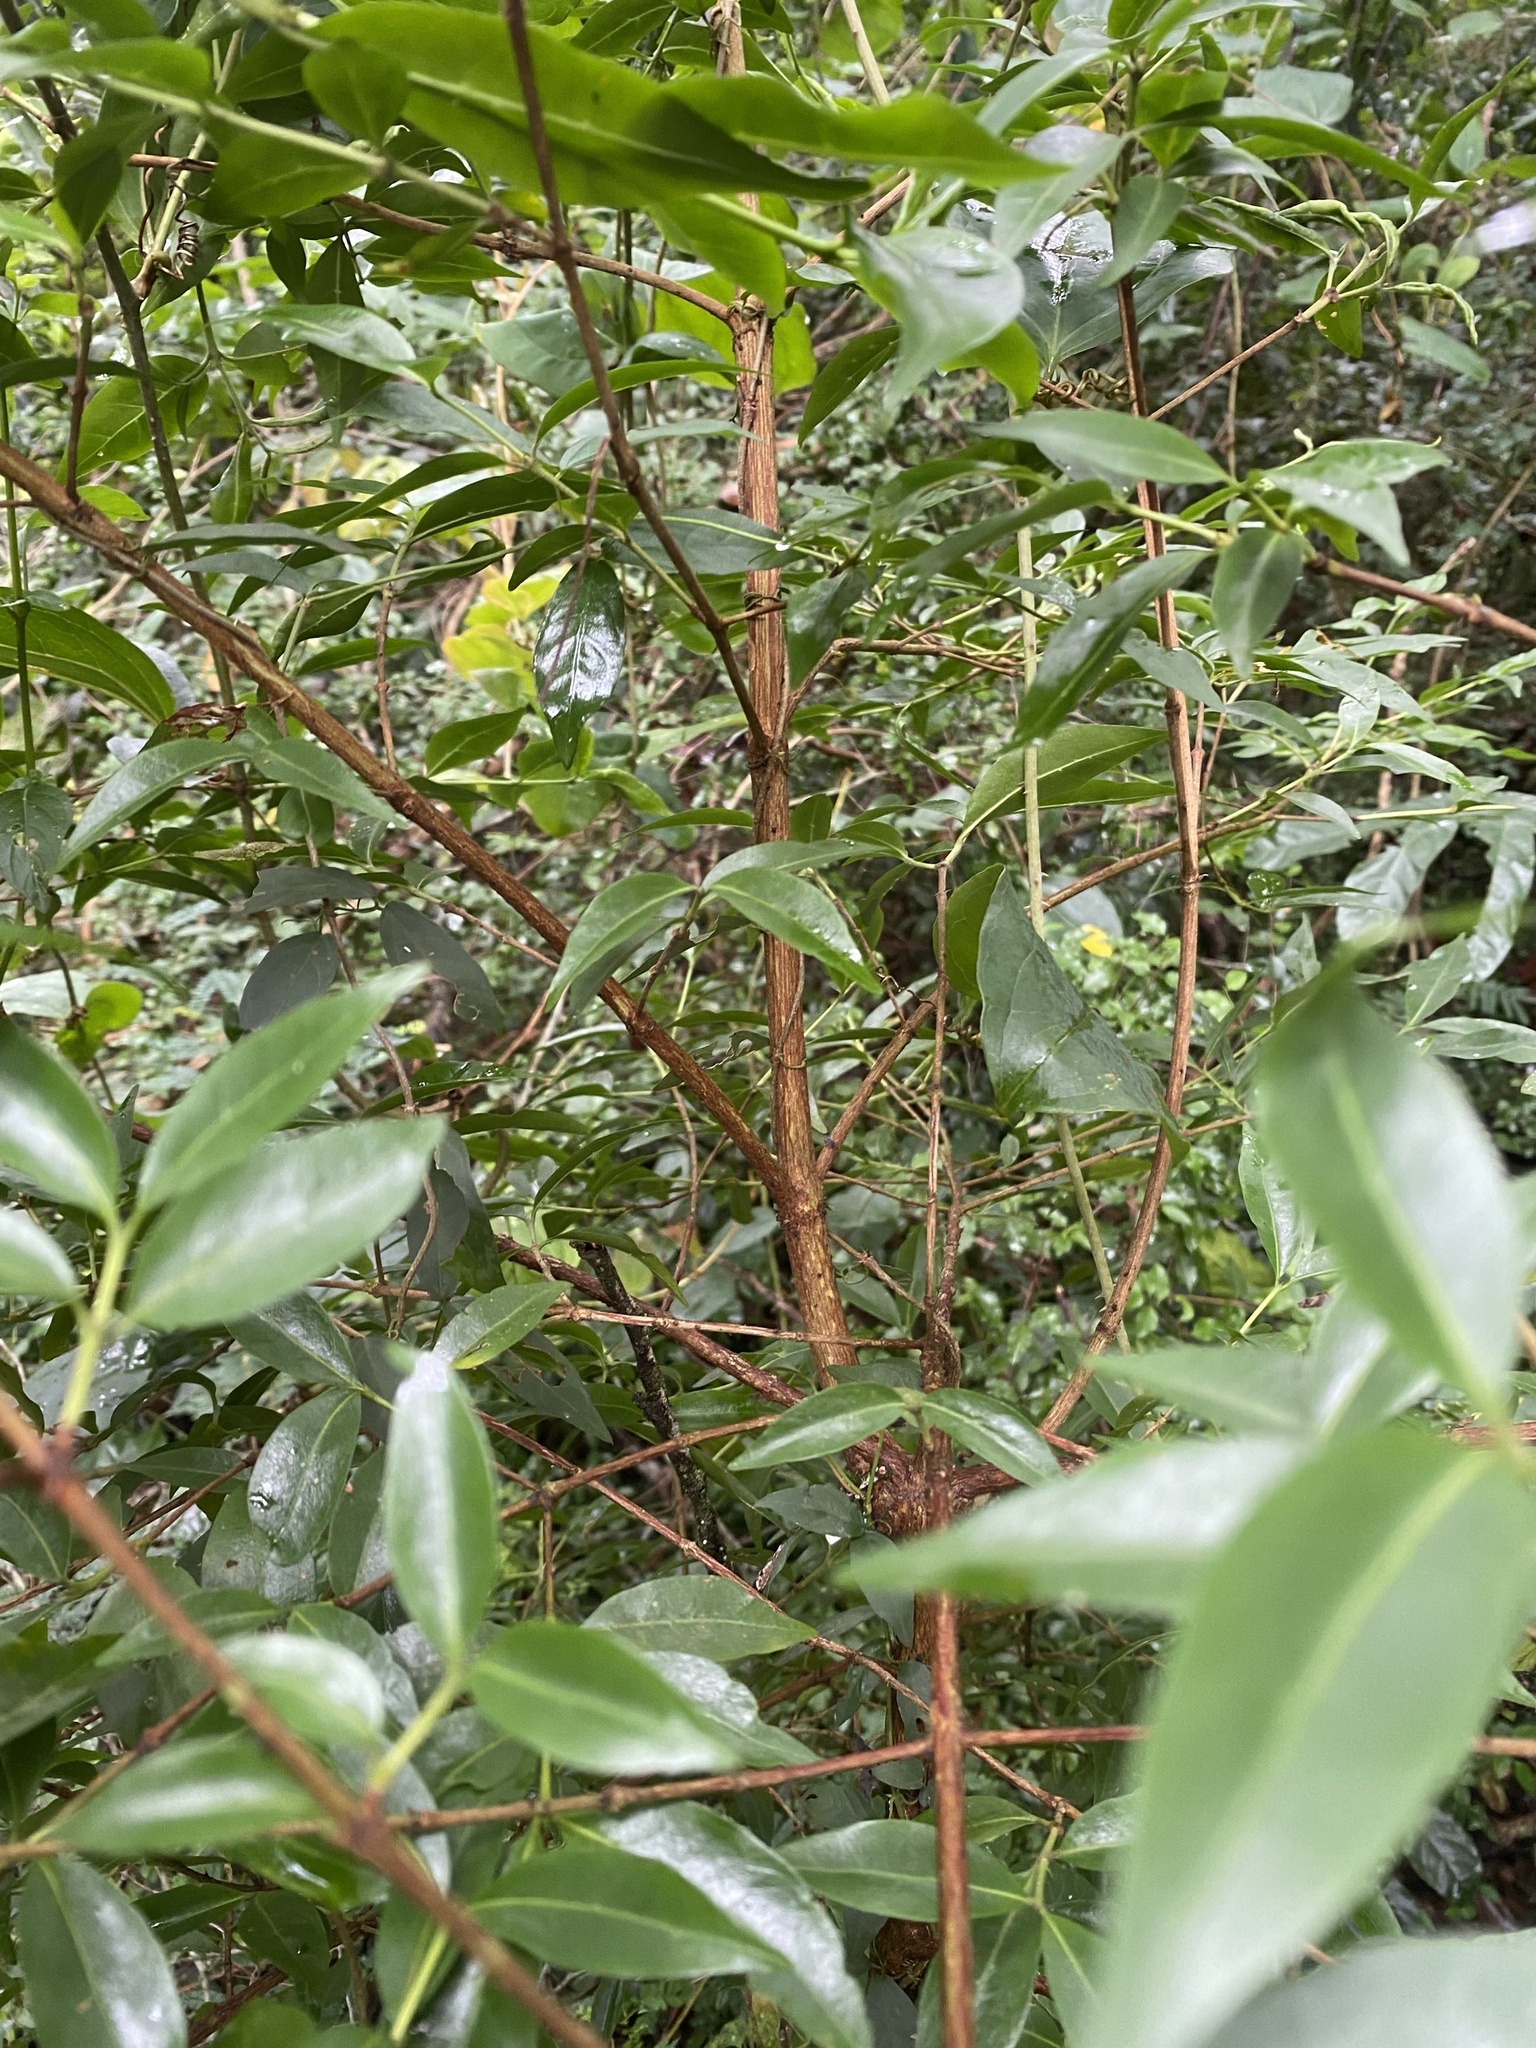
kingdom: Plantae
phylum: Tracheophyta
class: Magnoliopsida
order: Gentianales
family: Rubiaceae
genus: Tricalysia
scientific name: Tricalysia capensis
